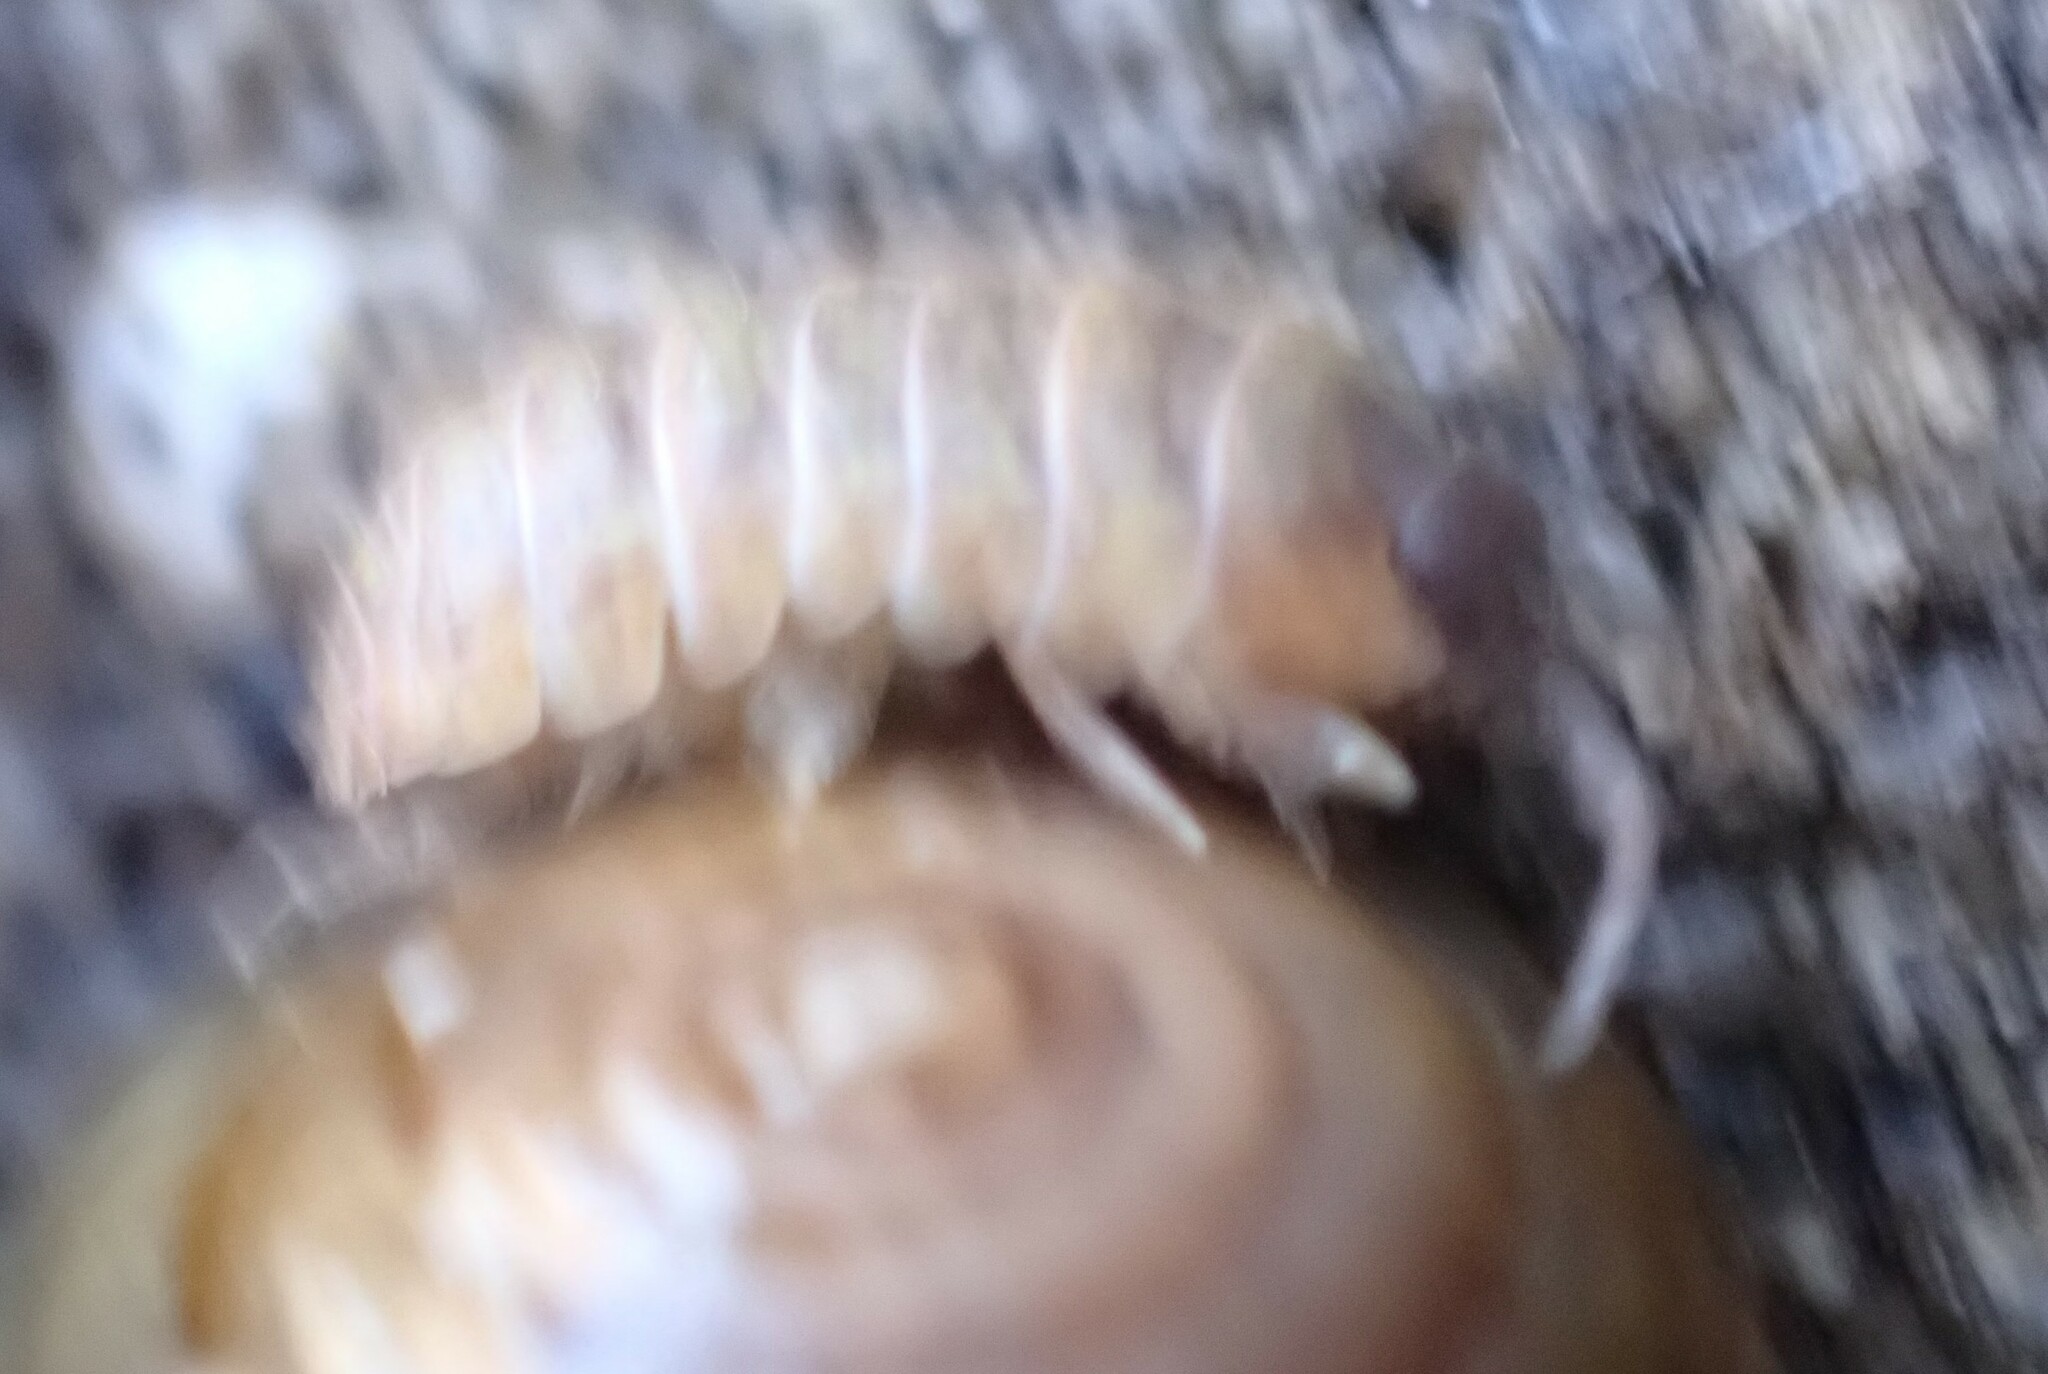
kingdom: Animalia
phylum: Arthropoda
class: Malacostraca
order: Isopoda
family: Armadillidiidae
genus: Armadillidium
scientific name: Armadillidium vulgare
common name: Common pill woodlouse
